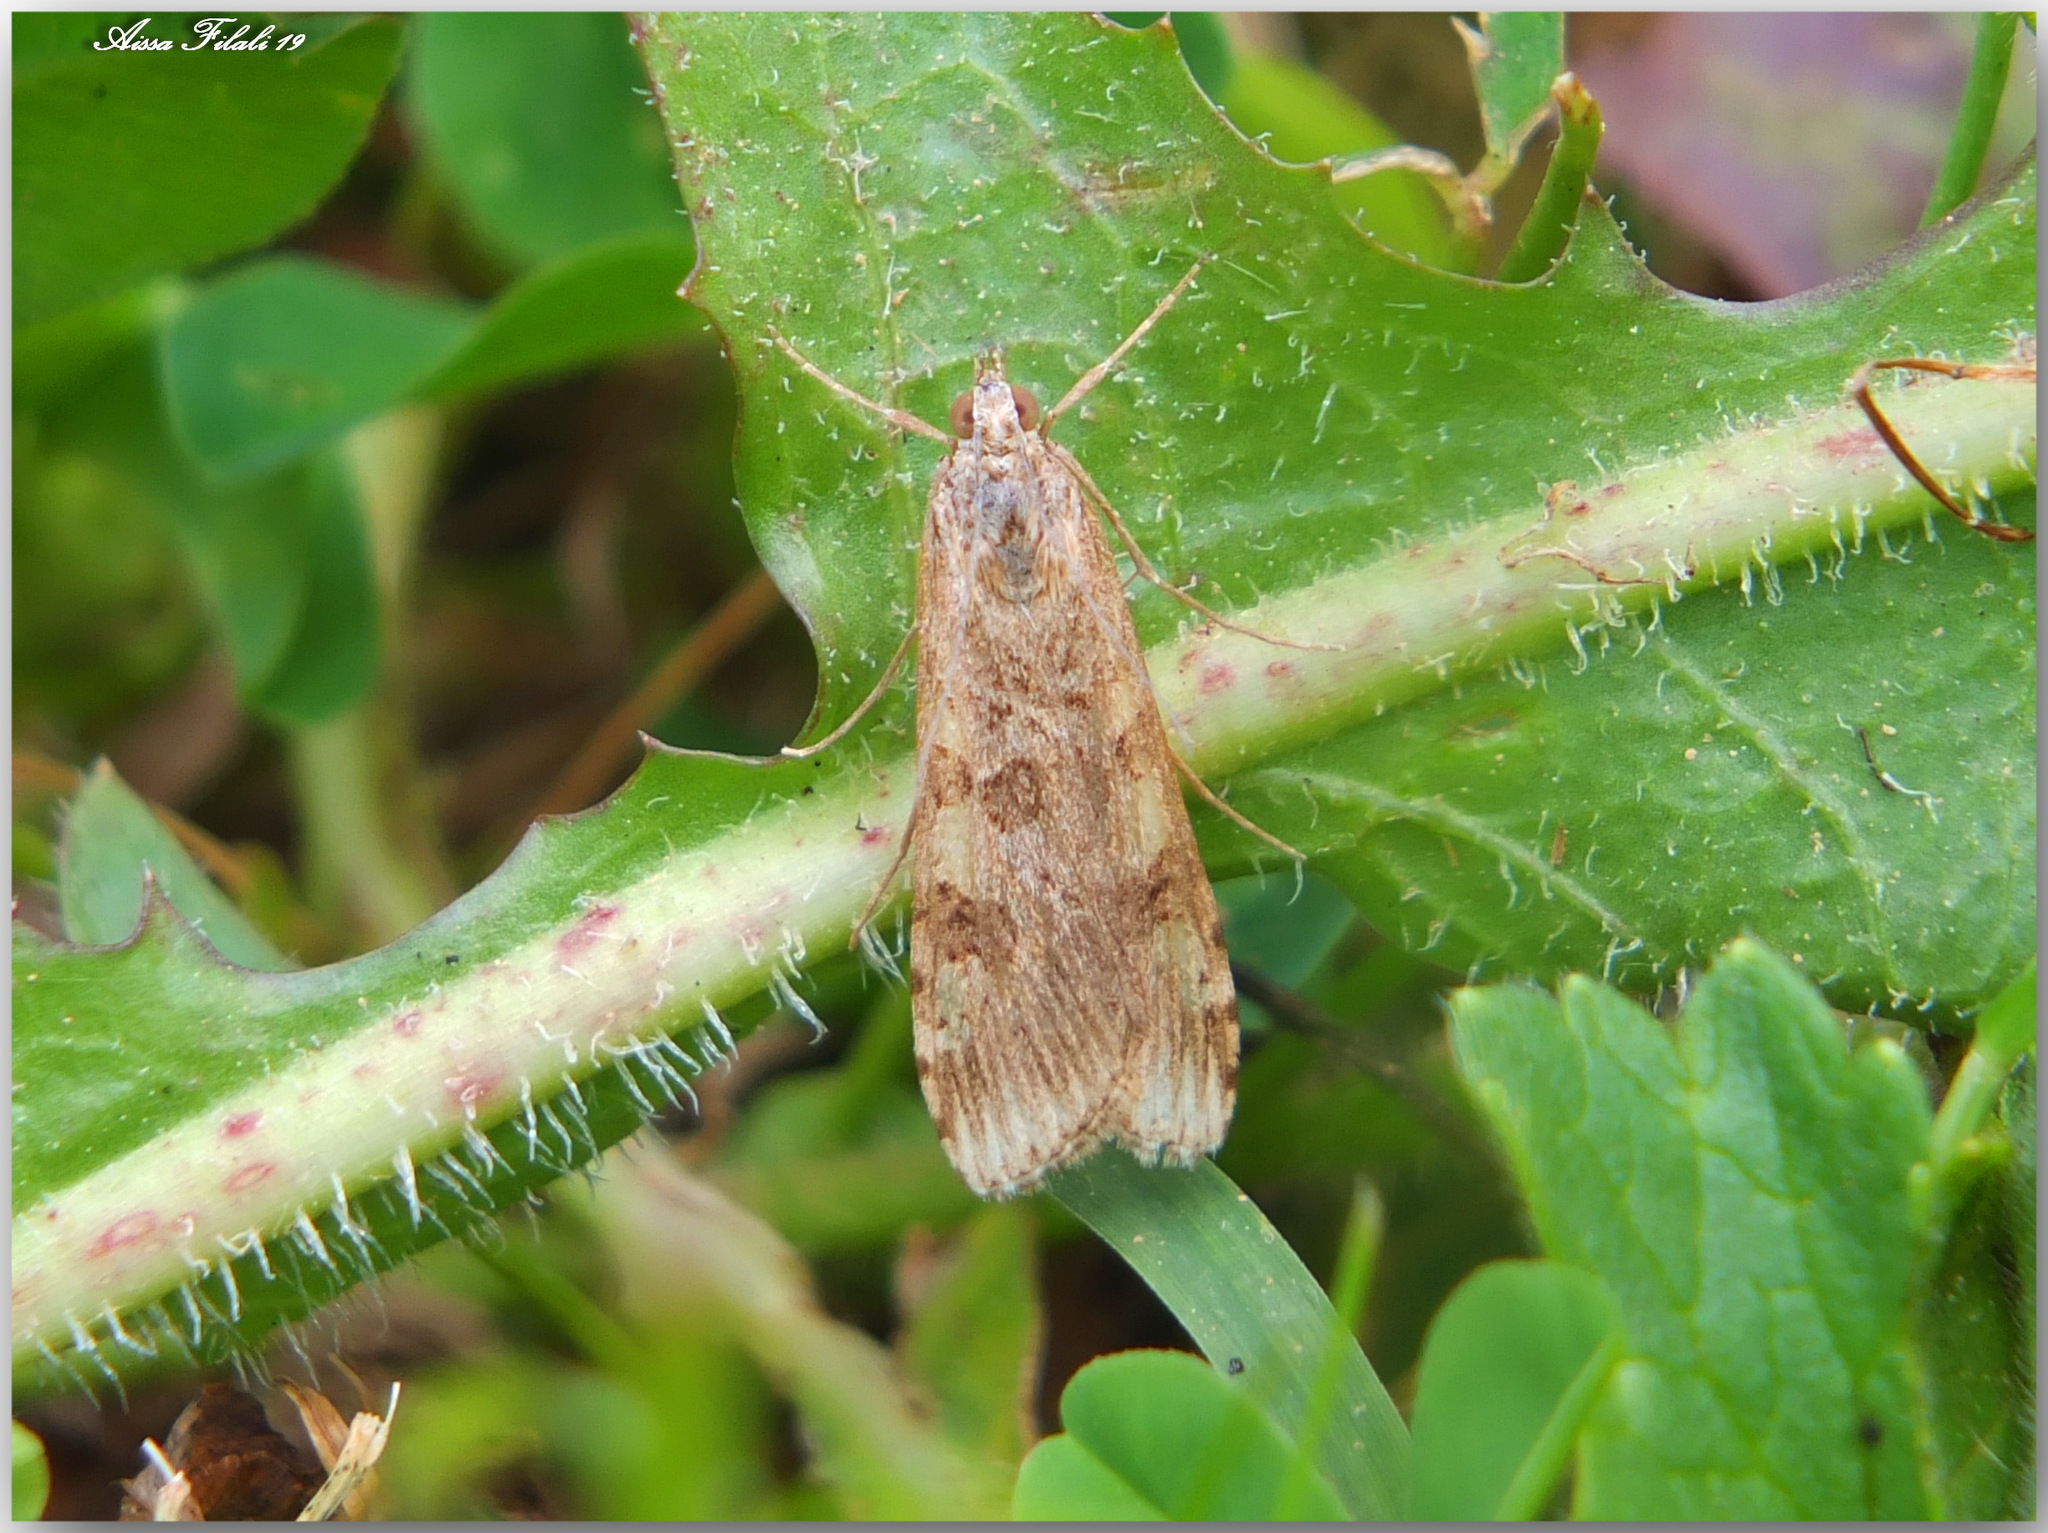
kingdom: Animalia
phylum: Arthropoda
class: Insecta
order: Lepidoptera
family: Crambidae
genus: Nomophila
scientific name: Nomophila noctuella
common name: Rush veneer
